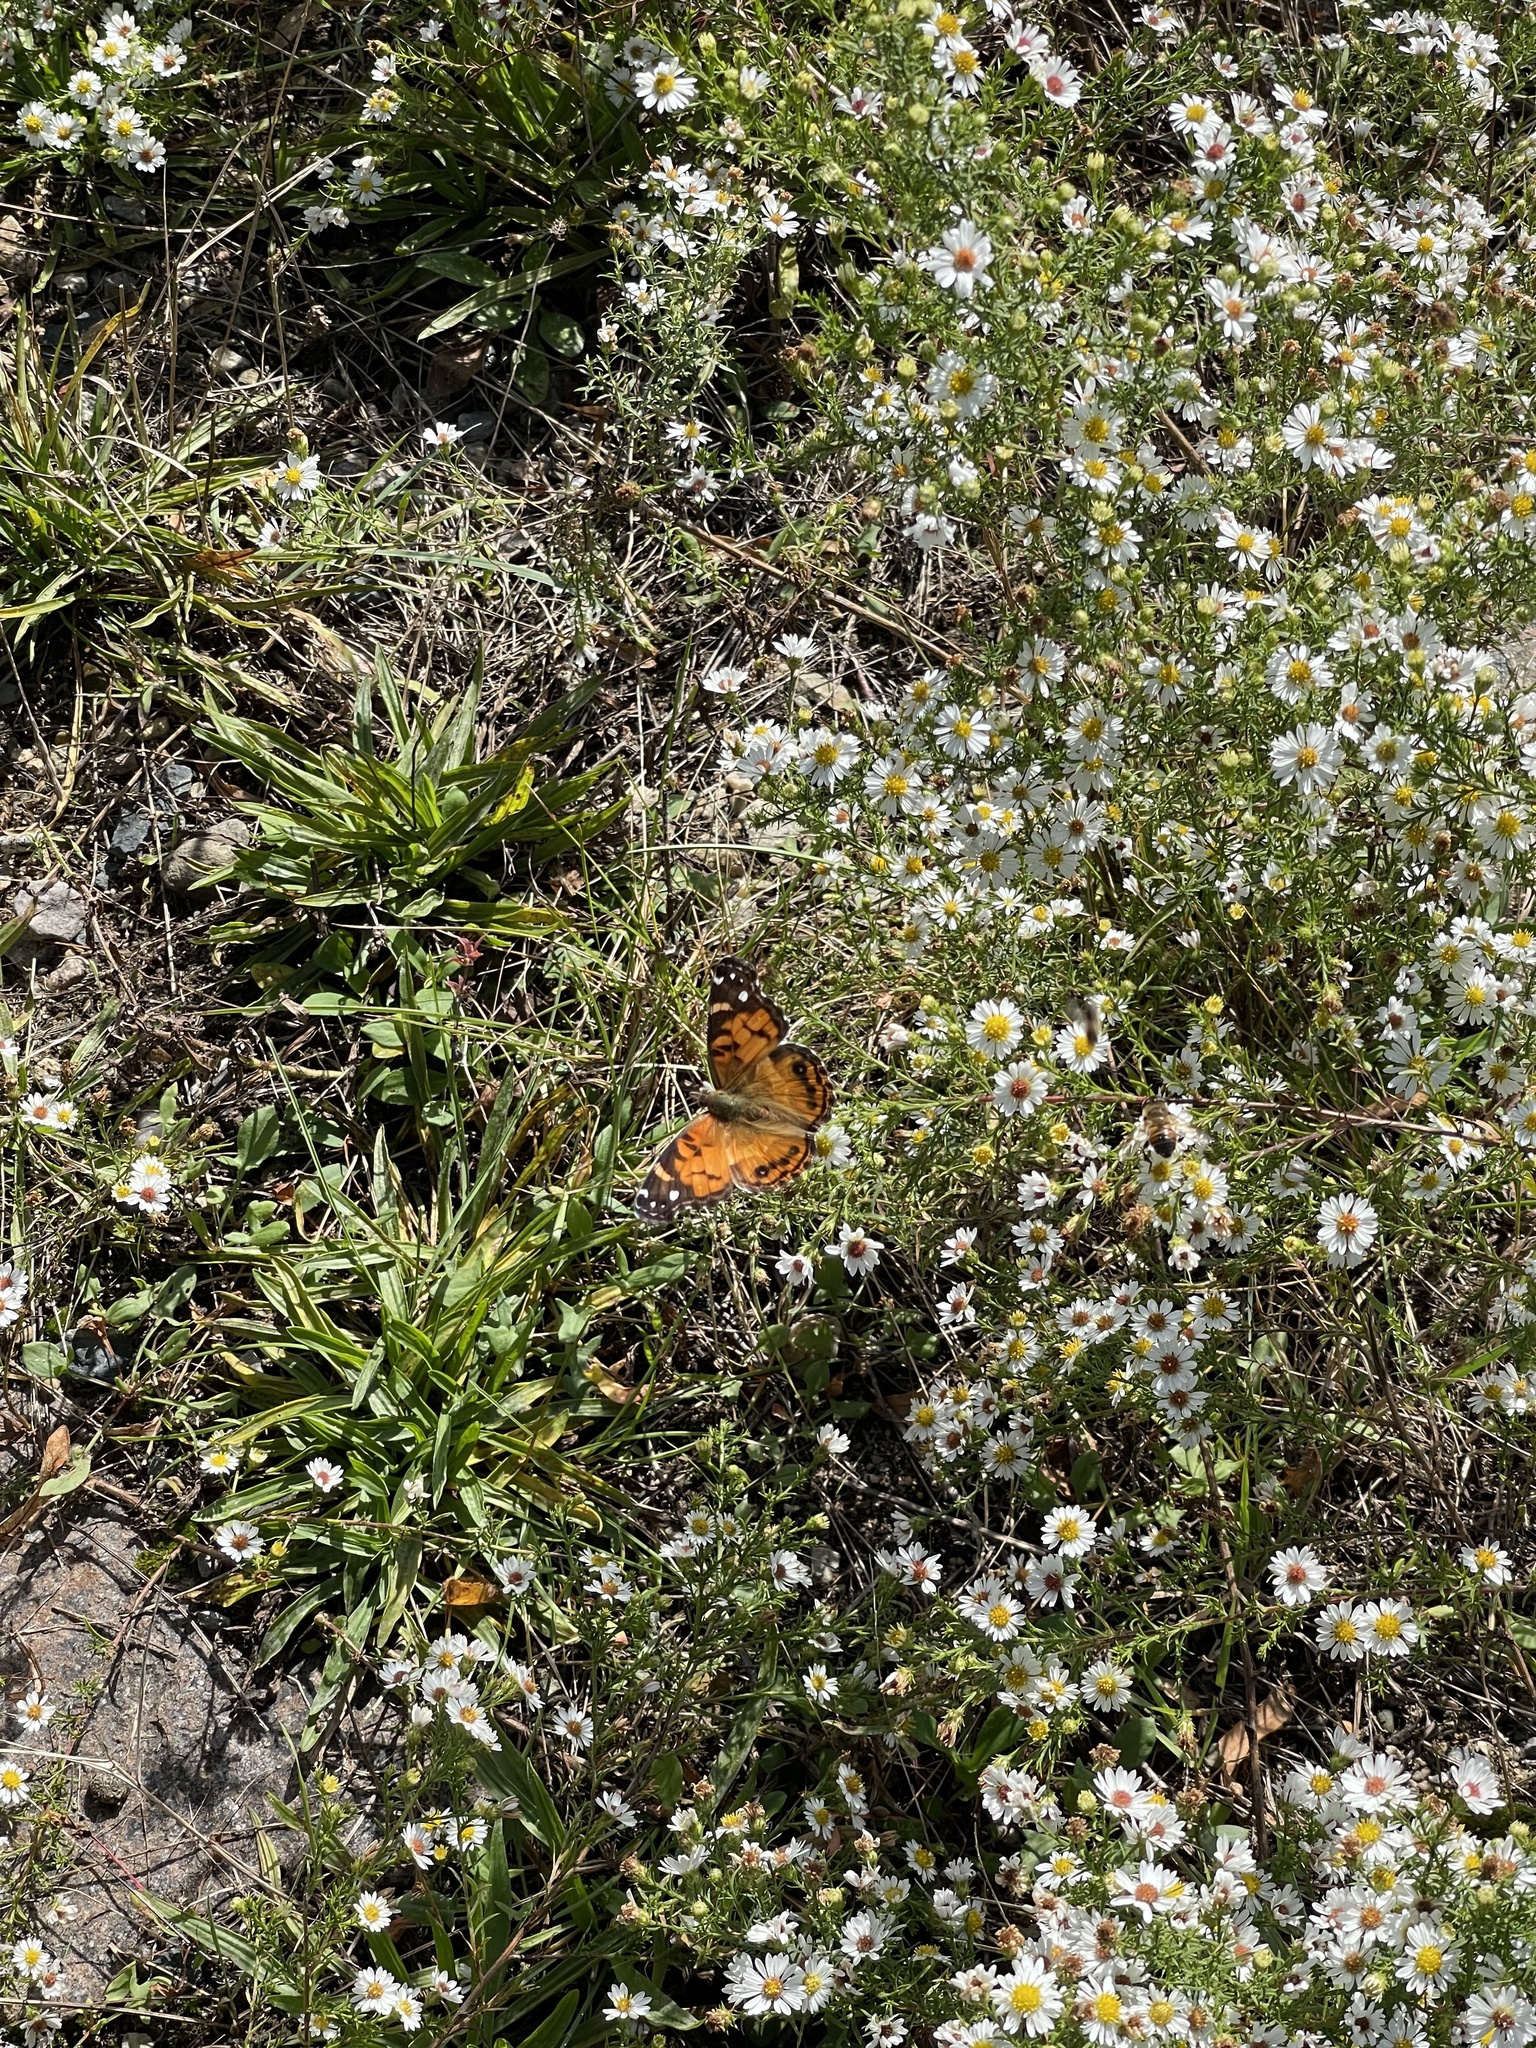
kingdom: Animalia
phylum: Arthropoda
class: Insecta
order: Lepidoptera
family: Nymphalidae
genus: Vanessa
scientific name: Vanessa virginiensis
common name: American lady
